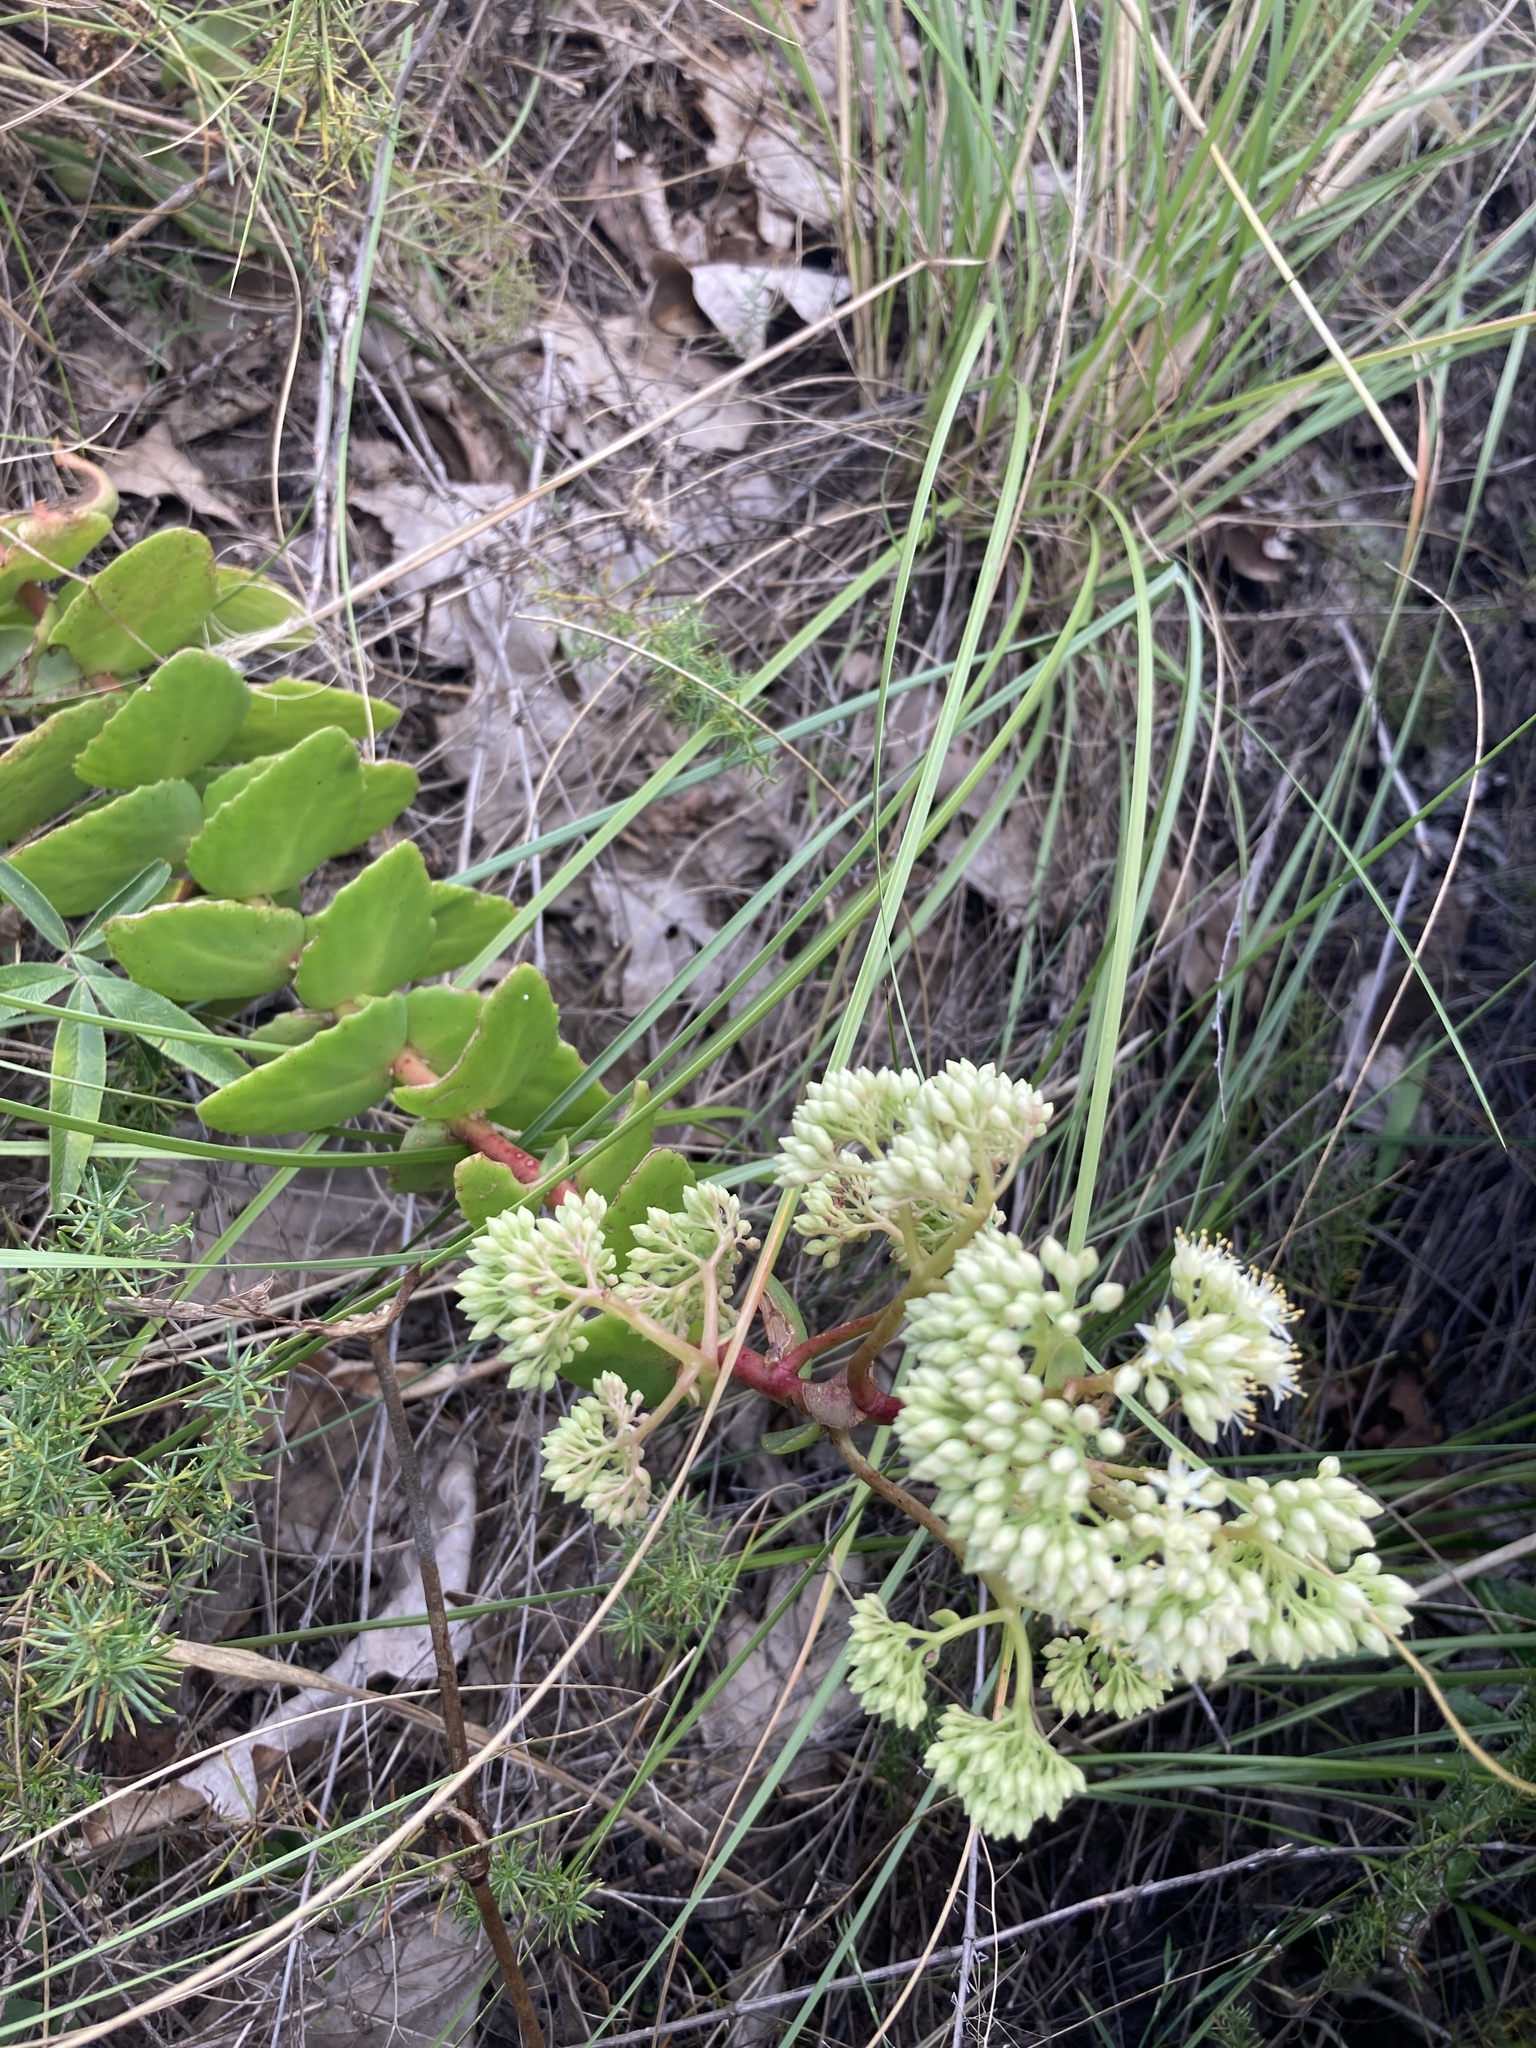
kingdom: Plantae
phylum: Tracheophyta
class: Magnoliopsida
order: Saxifragales
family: Crassulaceae
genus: Hylotelephium
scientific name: Hylotelephium maximum
